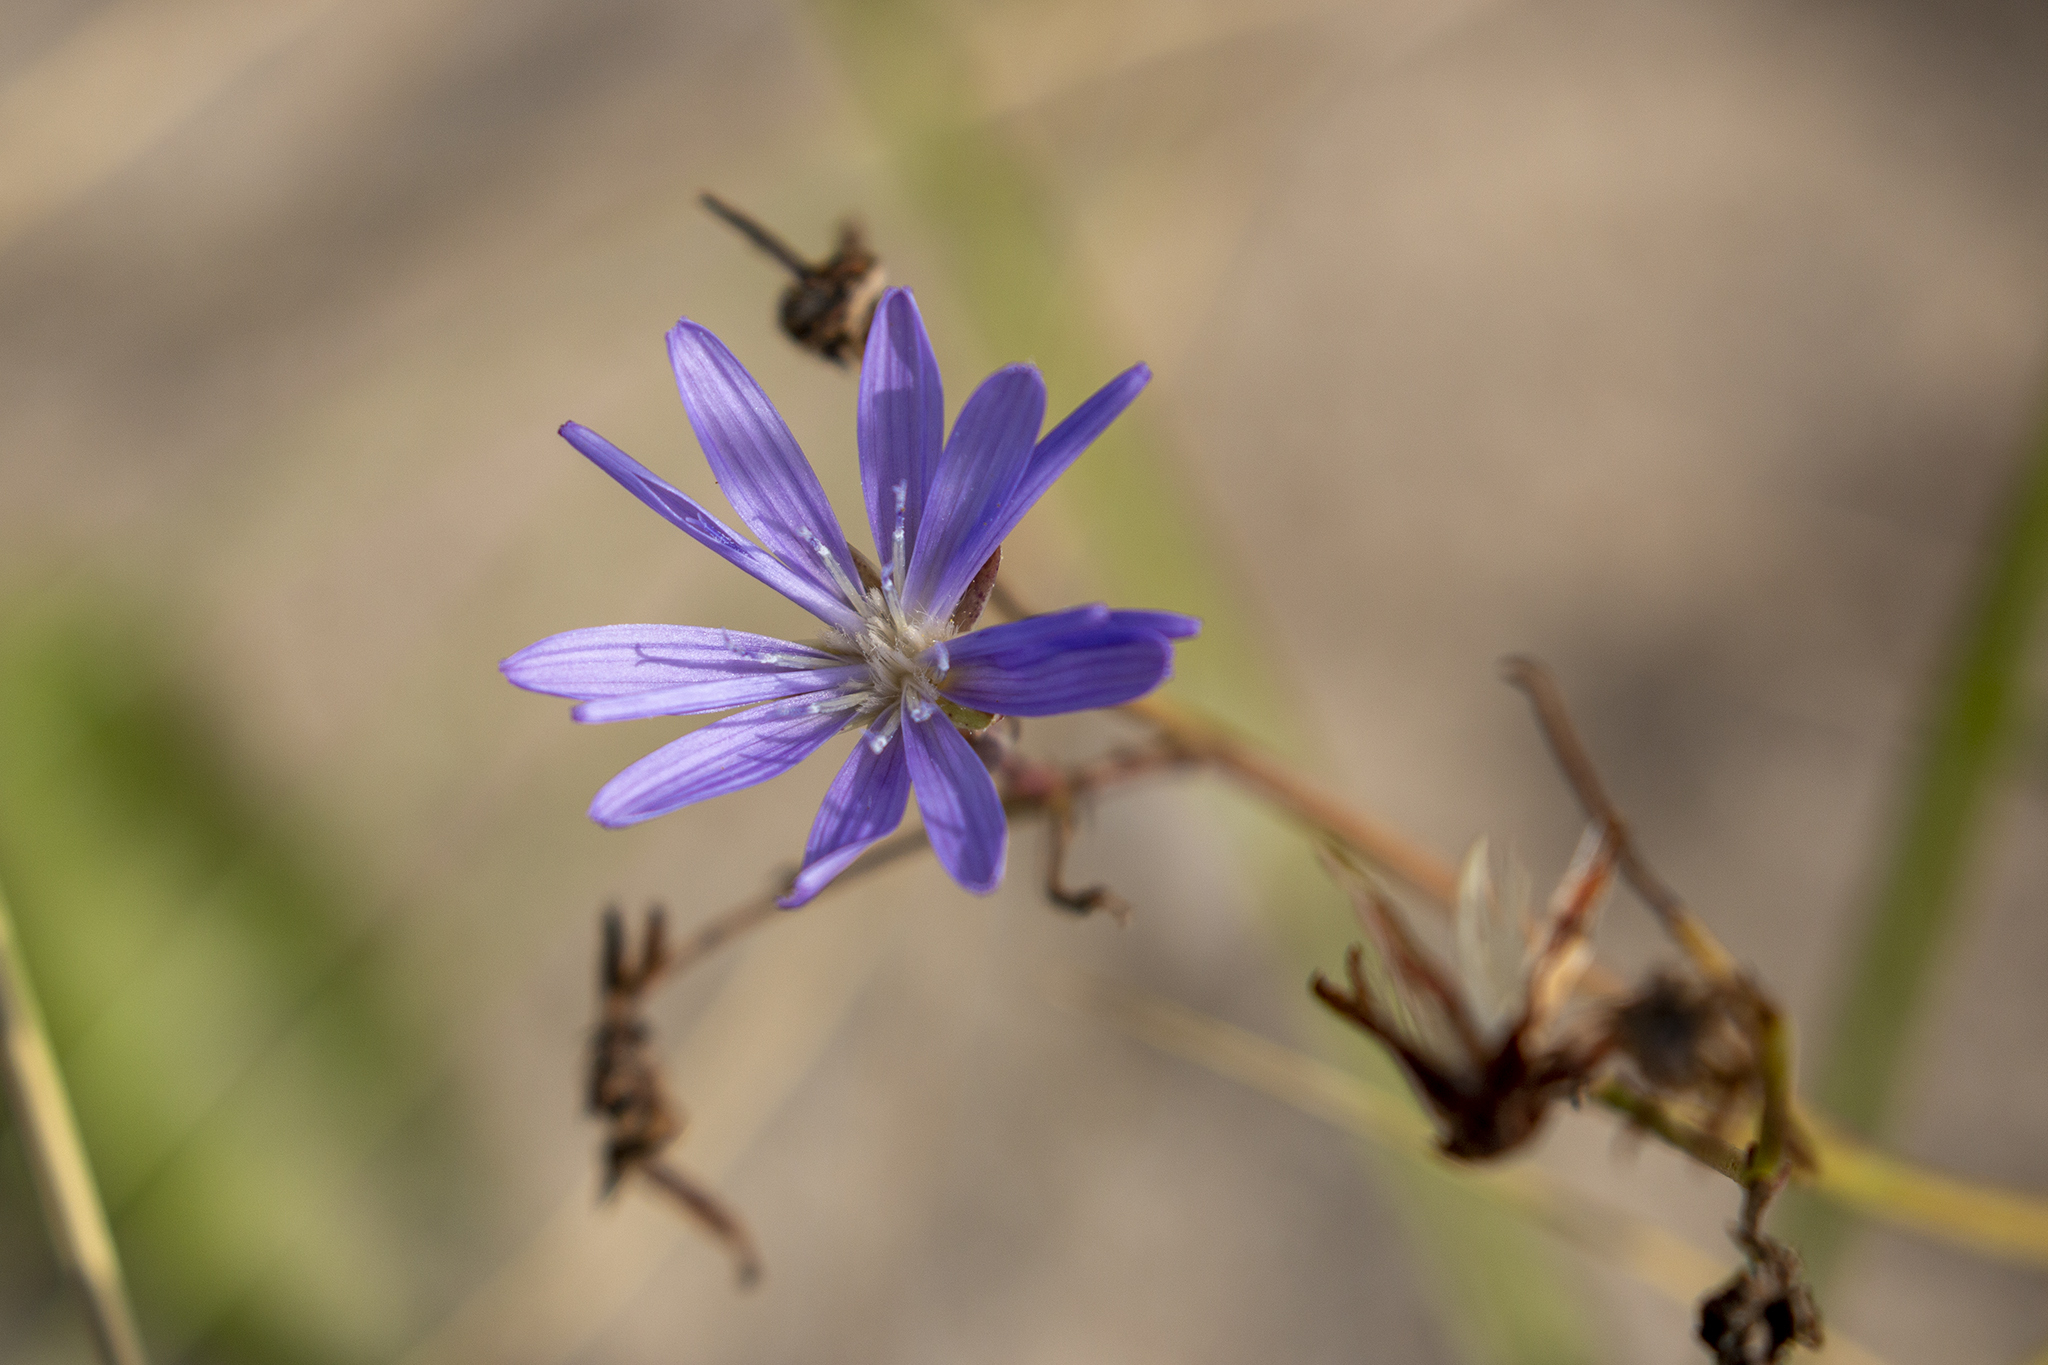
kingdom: Plantae
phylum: Tracheophyta
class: Magnoliopsida
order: Asterales
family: Asteraceae
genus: Lactuca
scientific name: Lactuca tatarica
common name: Blue lettuce
